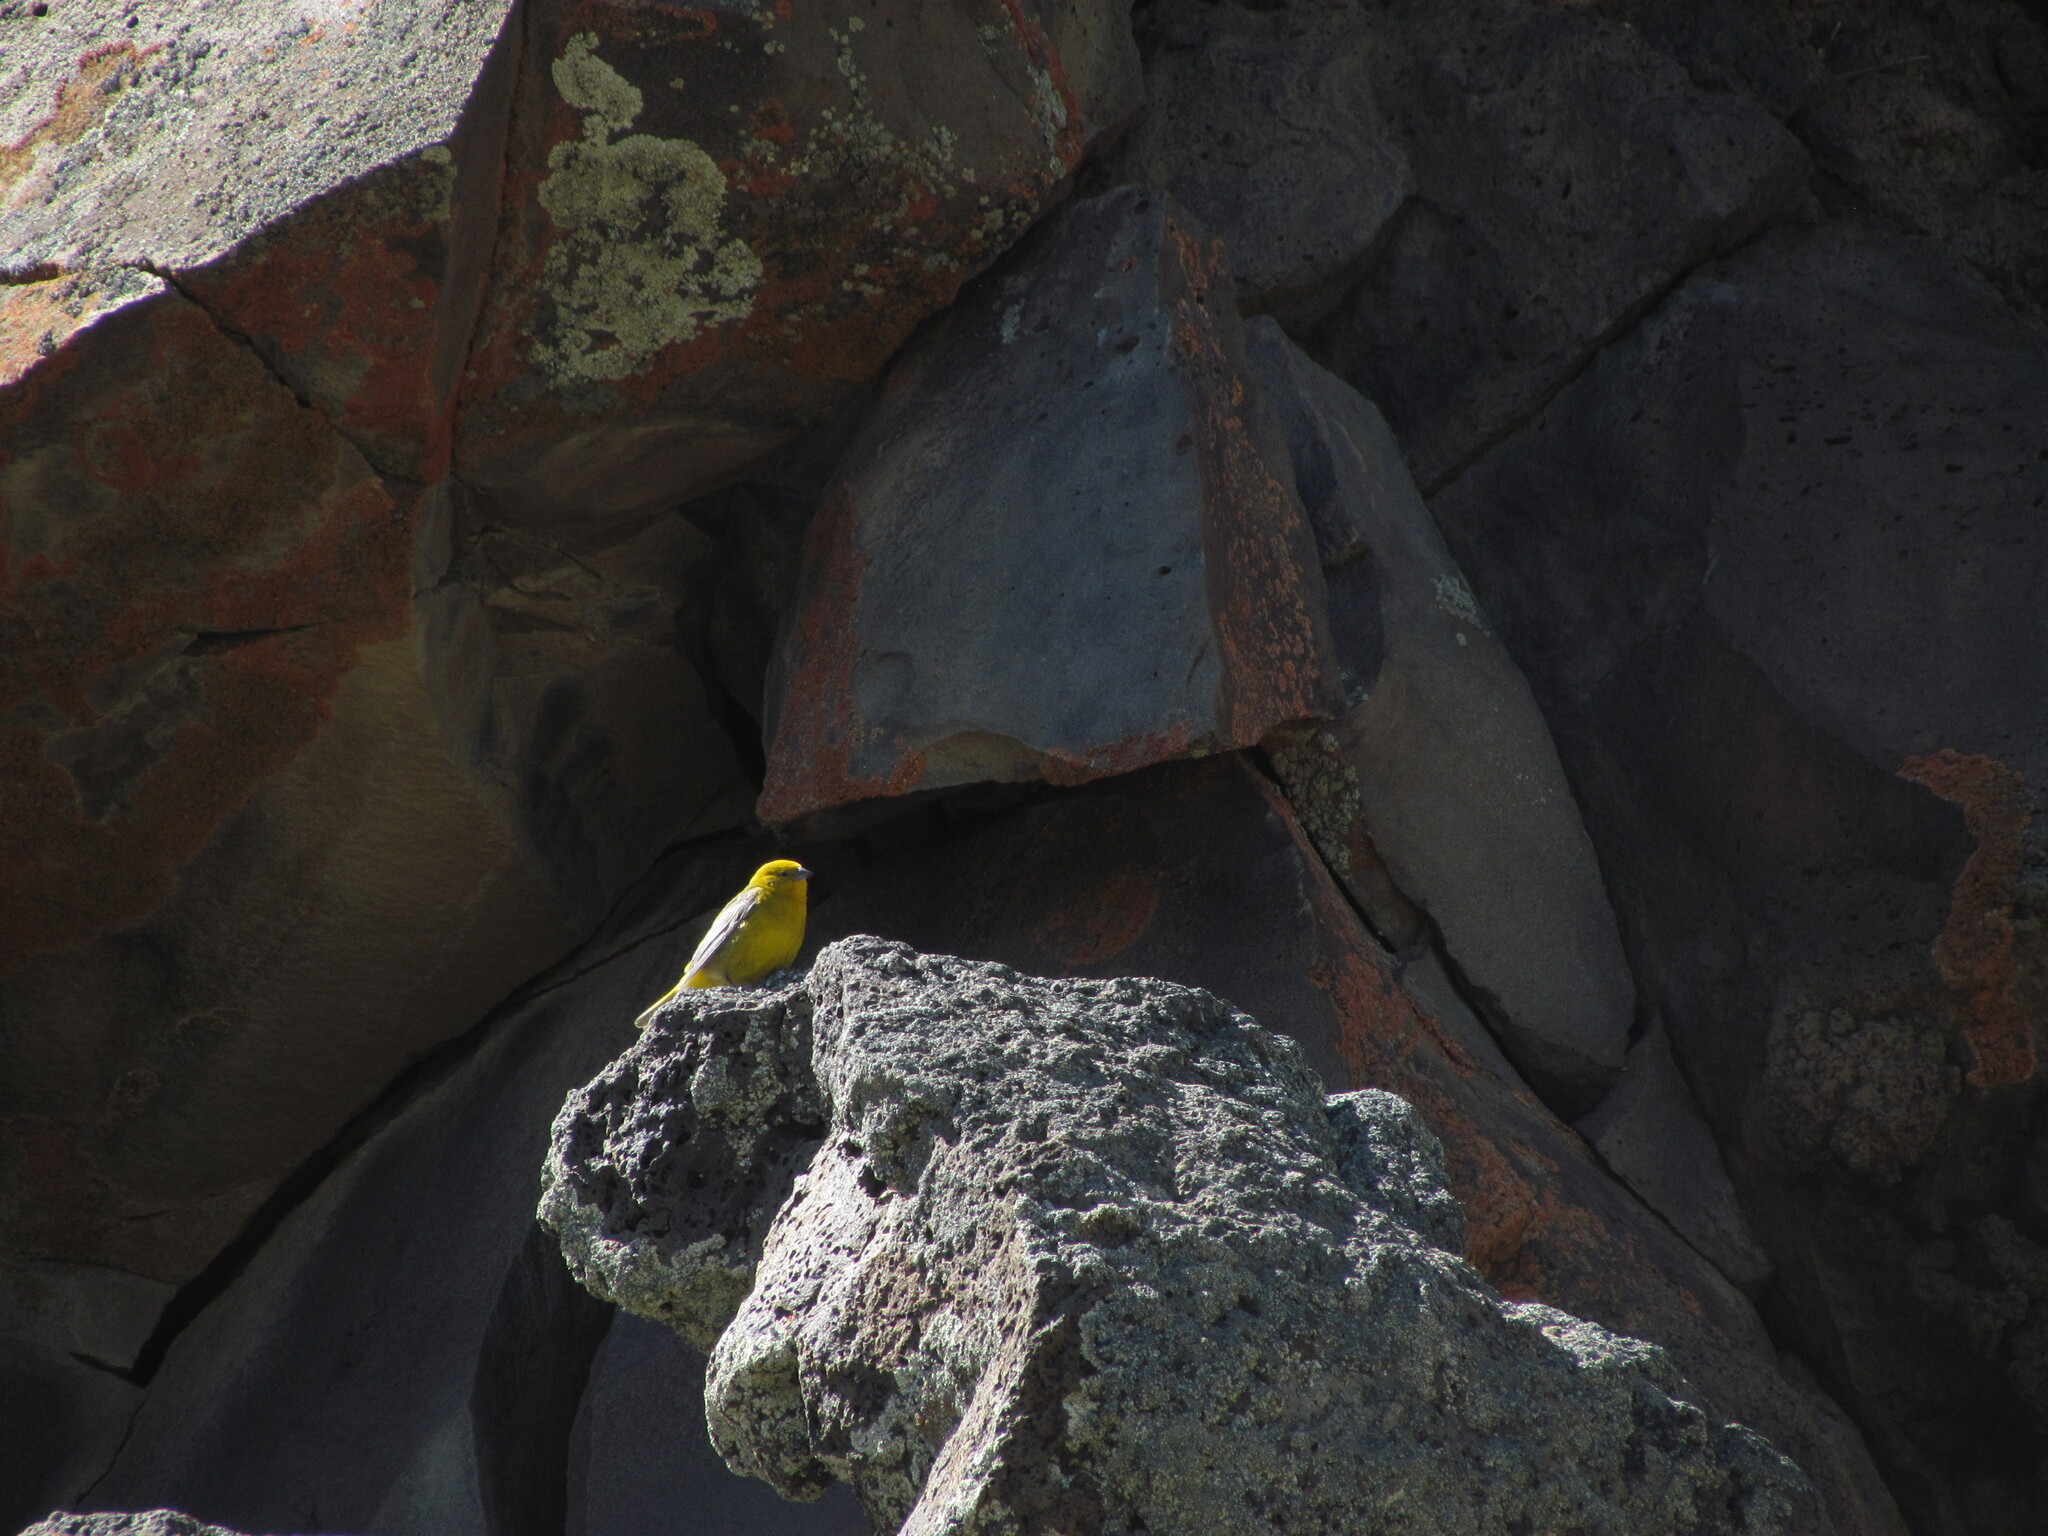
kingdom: Animalia
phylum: Chordata
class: Aves
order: Passeriformes
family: Thraupidae
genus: Sicalis
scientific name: Sicalis auriventris
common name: Greater yellow finch
